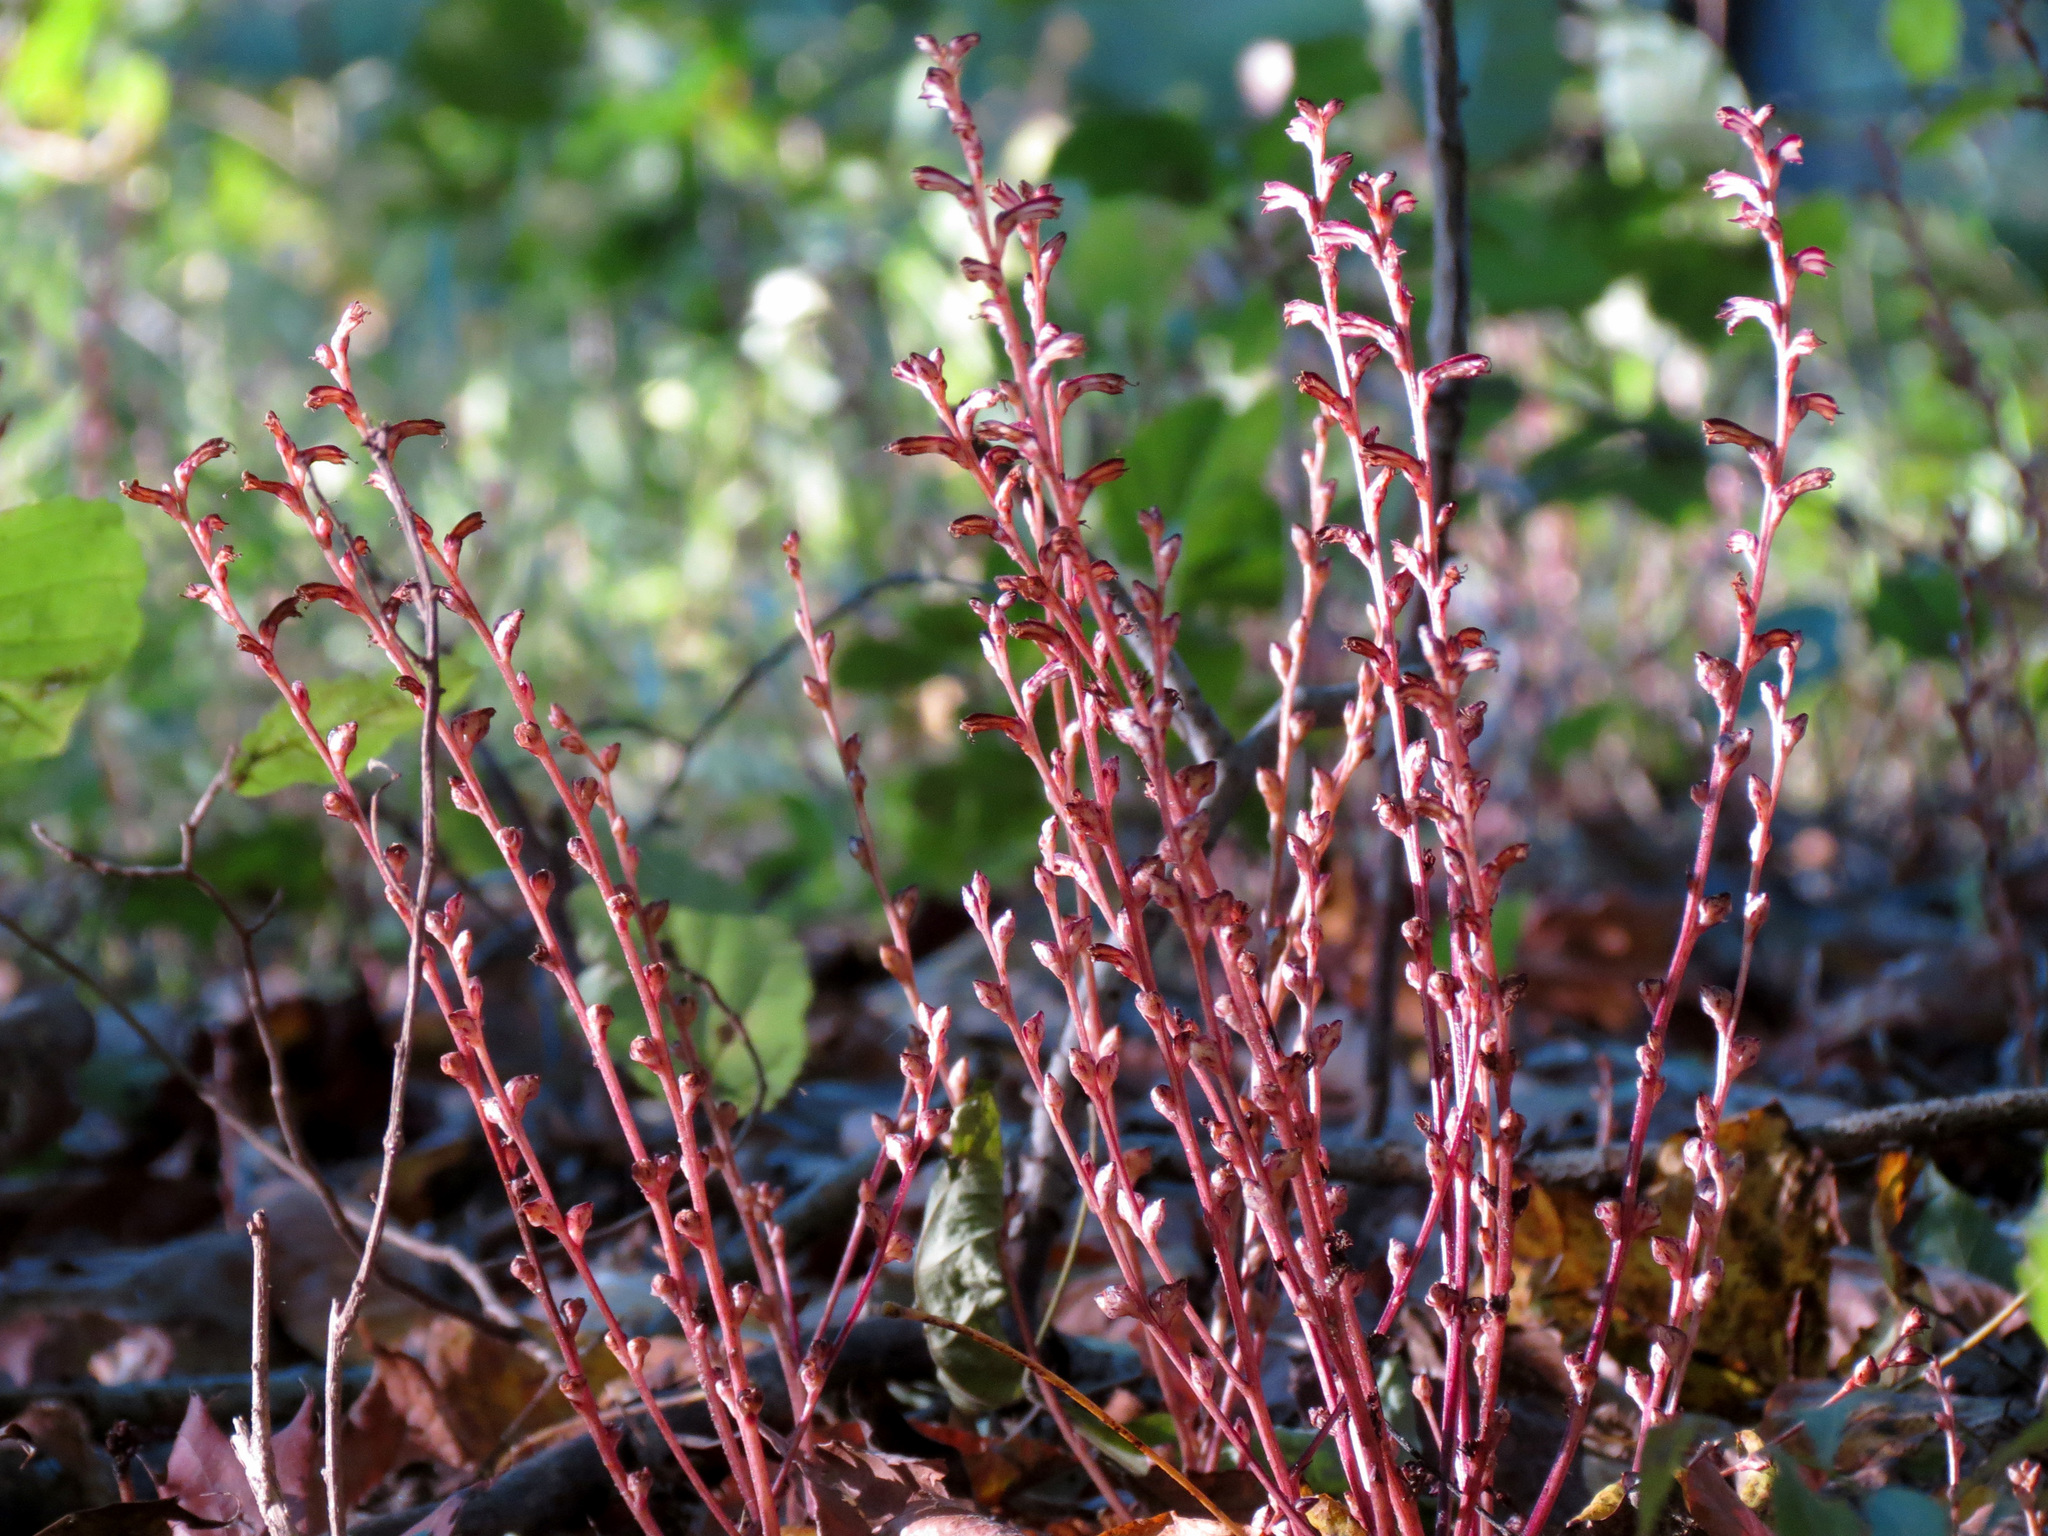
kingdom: Plantae
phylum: Tracheophyta
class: Magnoliopsida
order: Lamiales
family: Orobanchaceae
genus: Epifagus
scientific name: Epifagus virginiana
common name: Beechdrops
